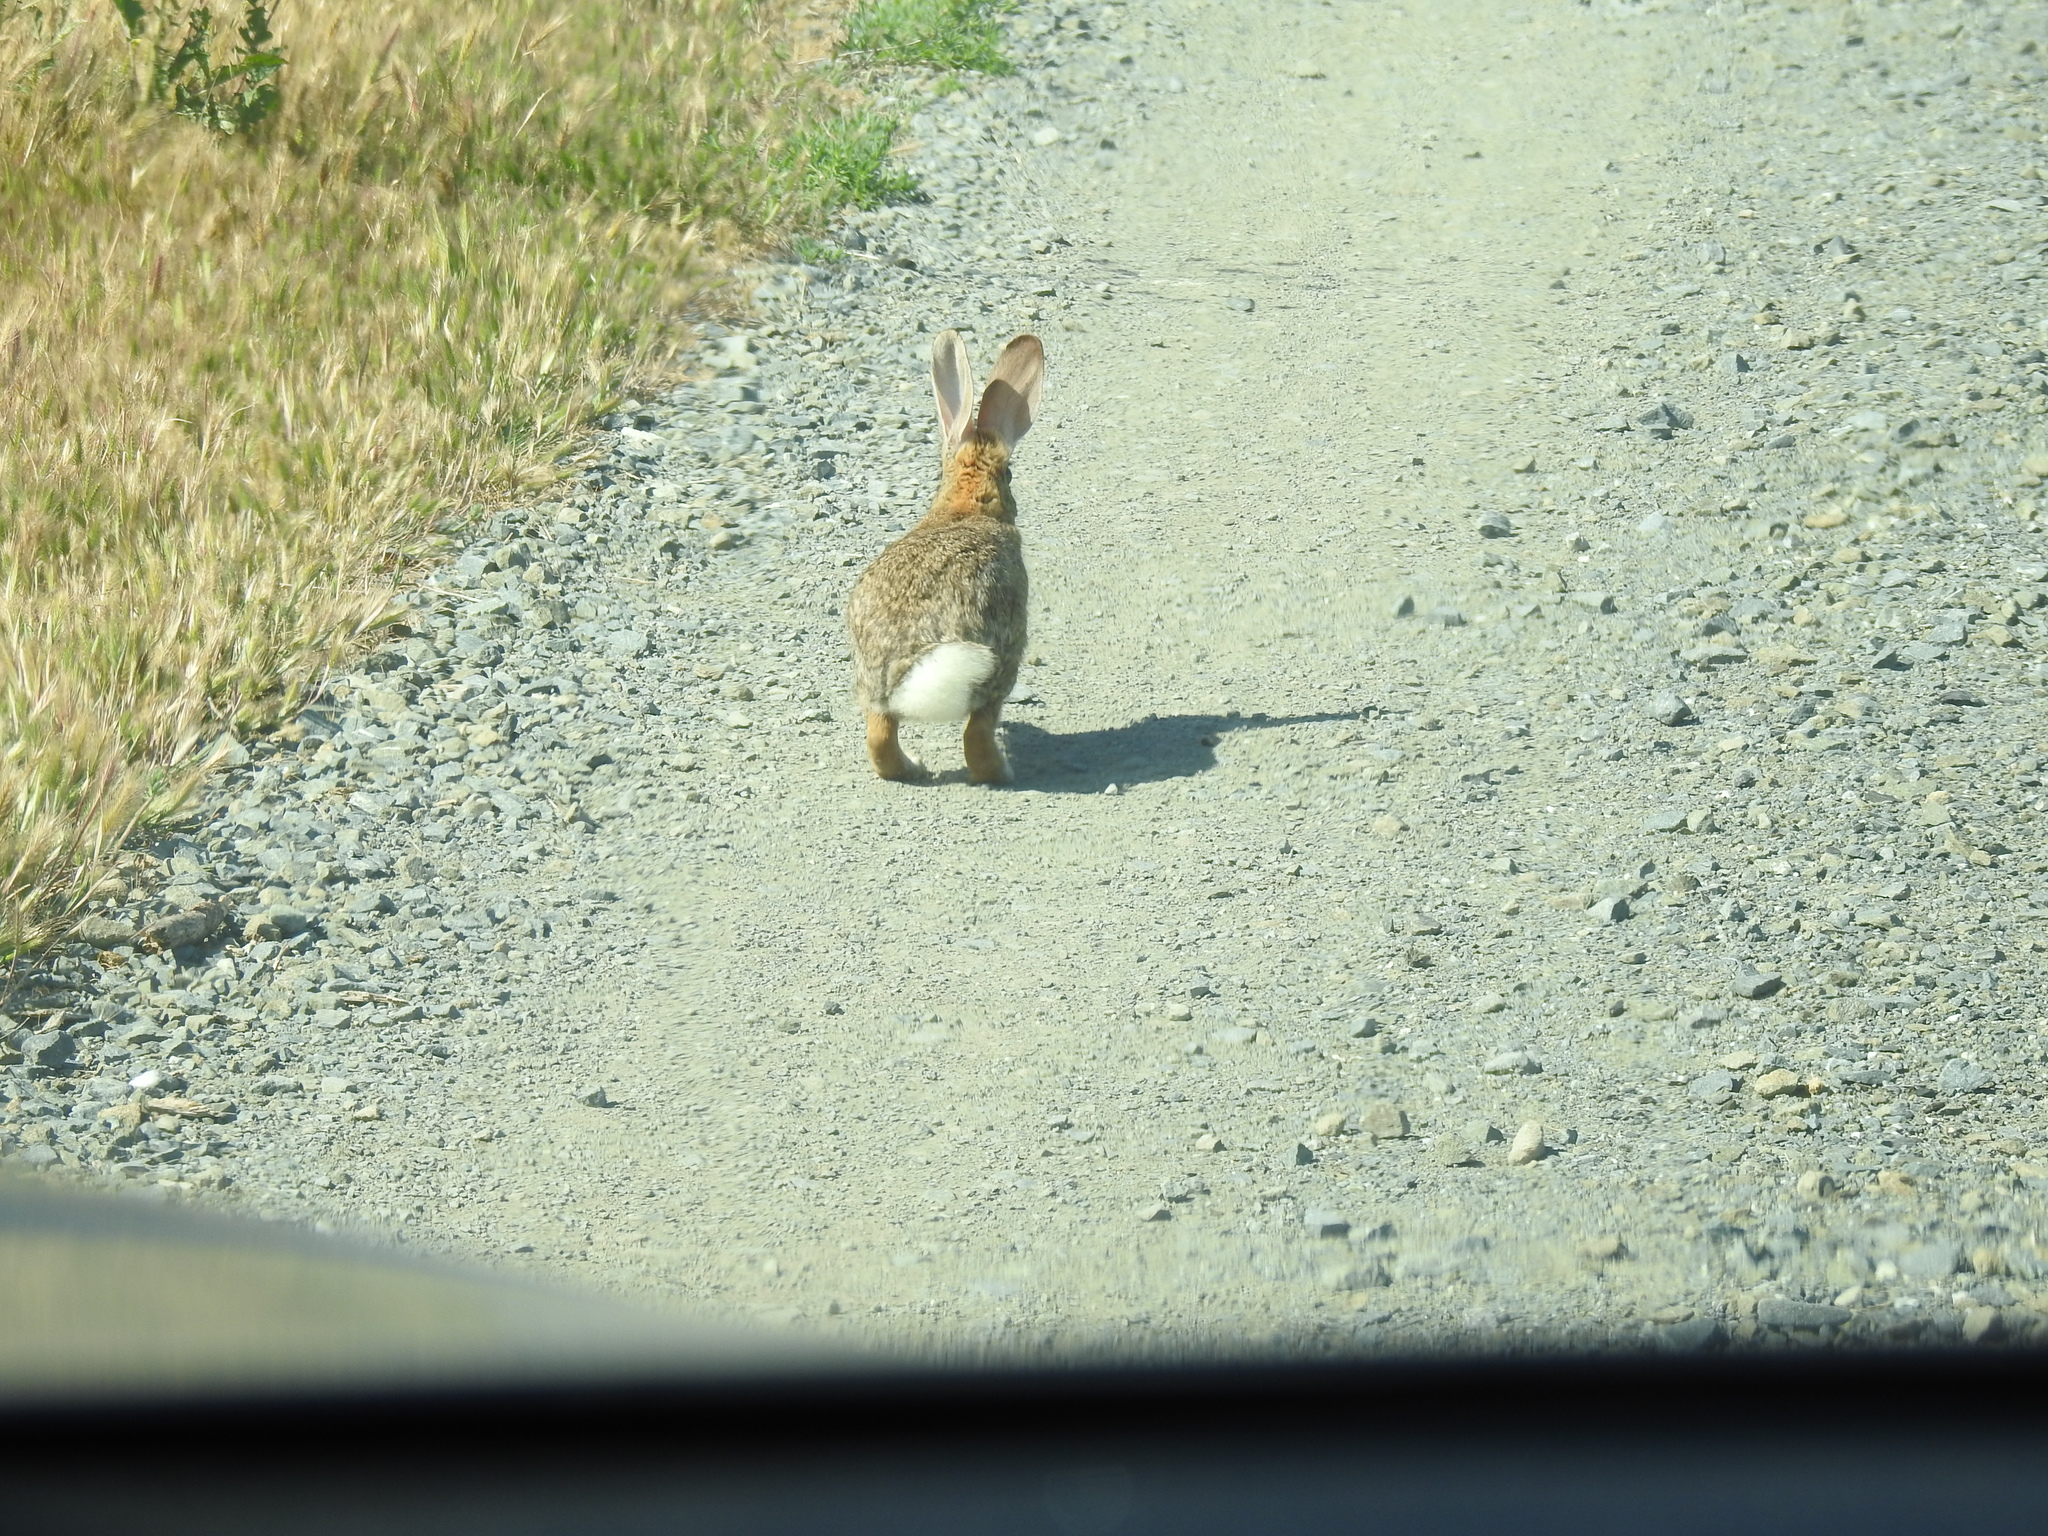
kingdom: Animalia
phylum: Chordata
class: Mammalia
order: Lagomorpha
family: Leporidae
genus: Sylvilagus
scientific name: Sylvilagus audubonii
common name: Desert cottontail
